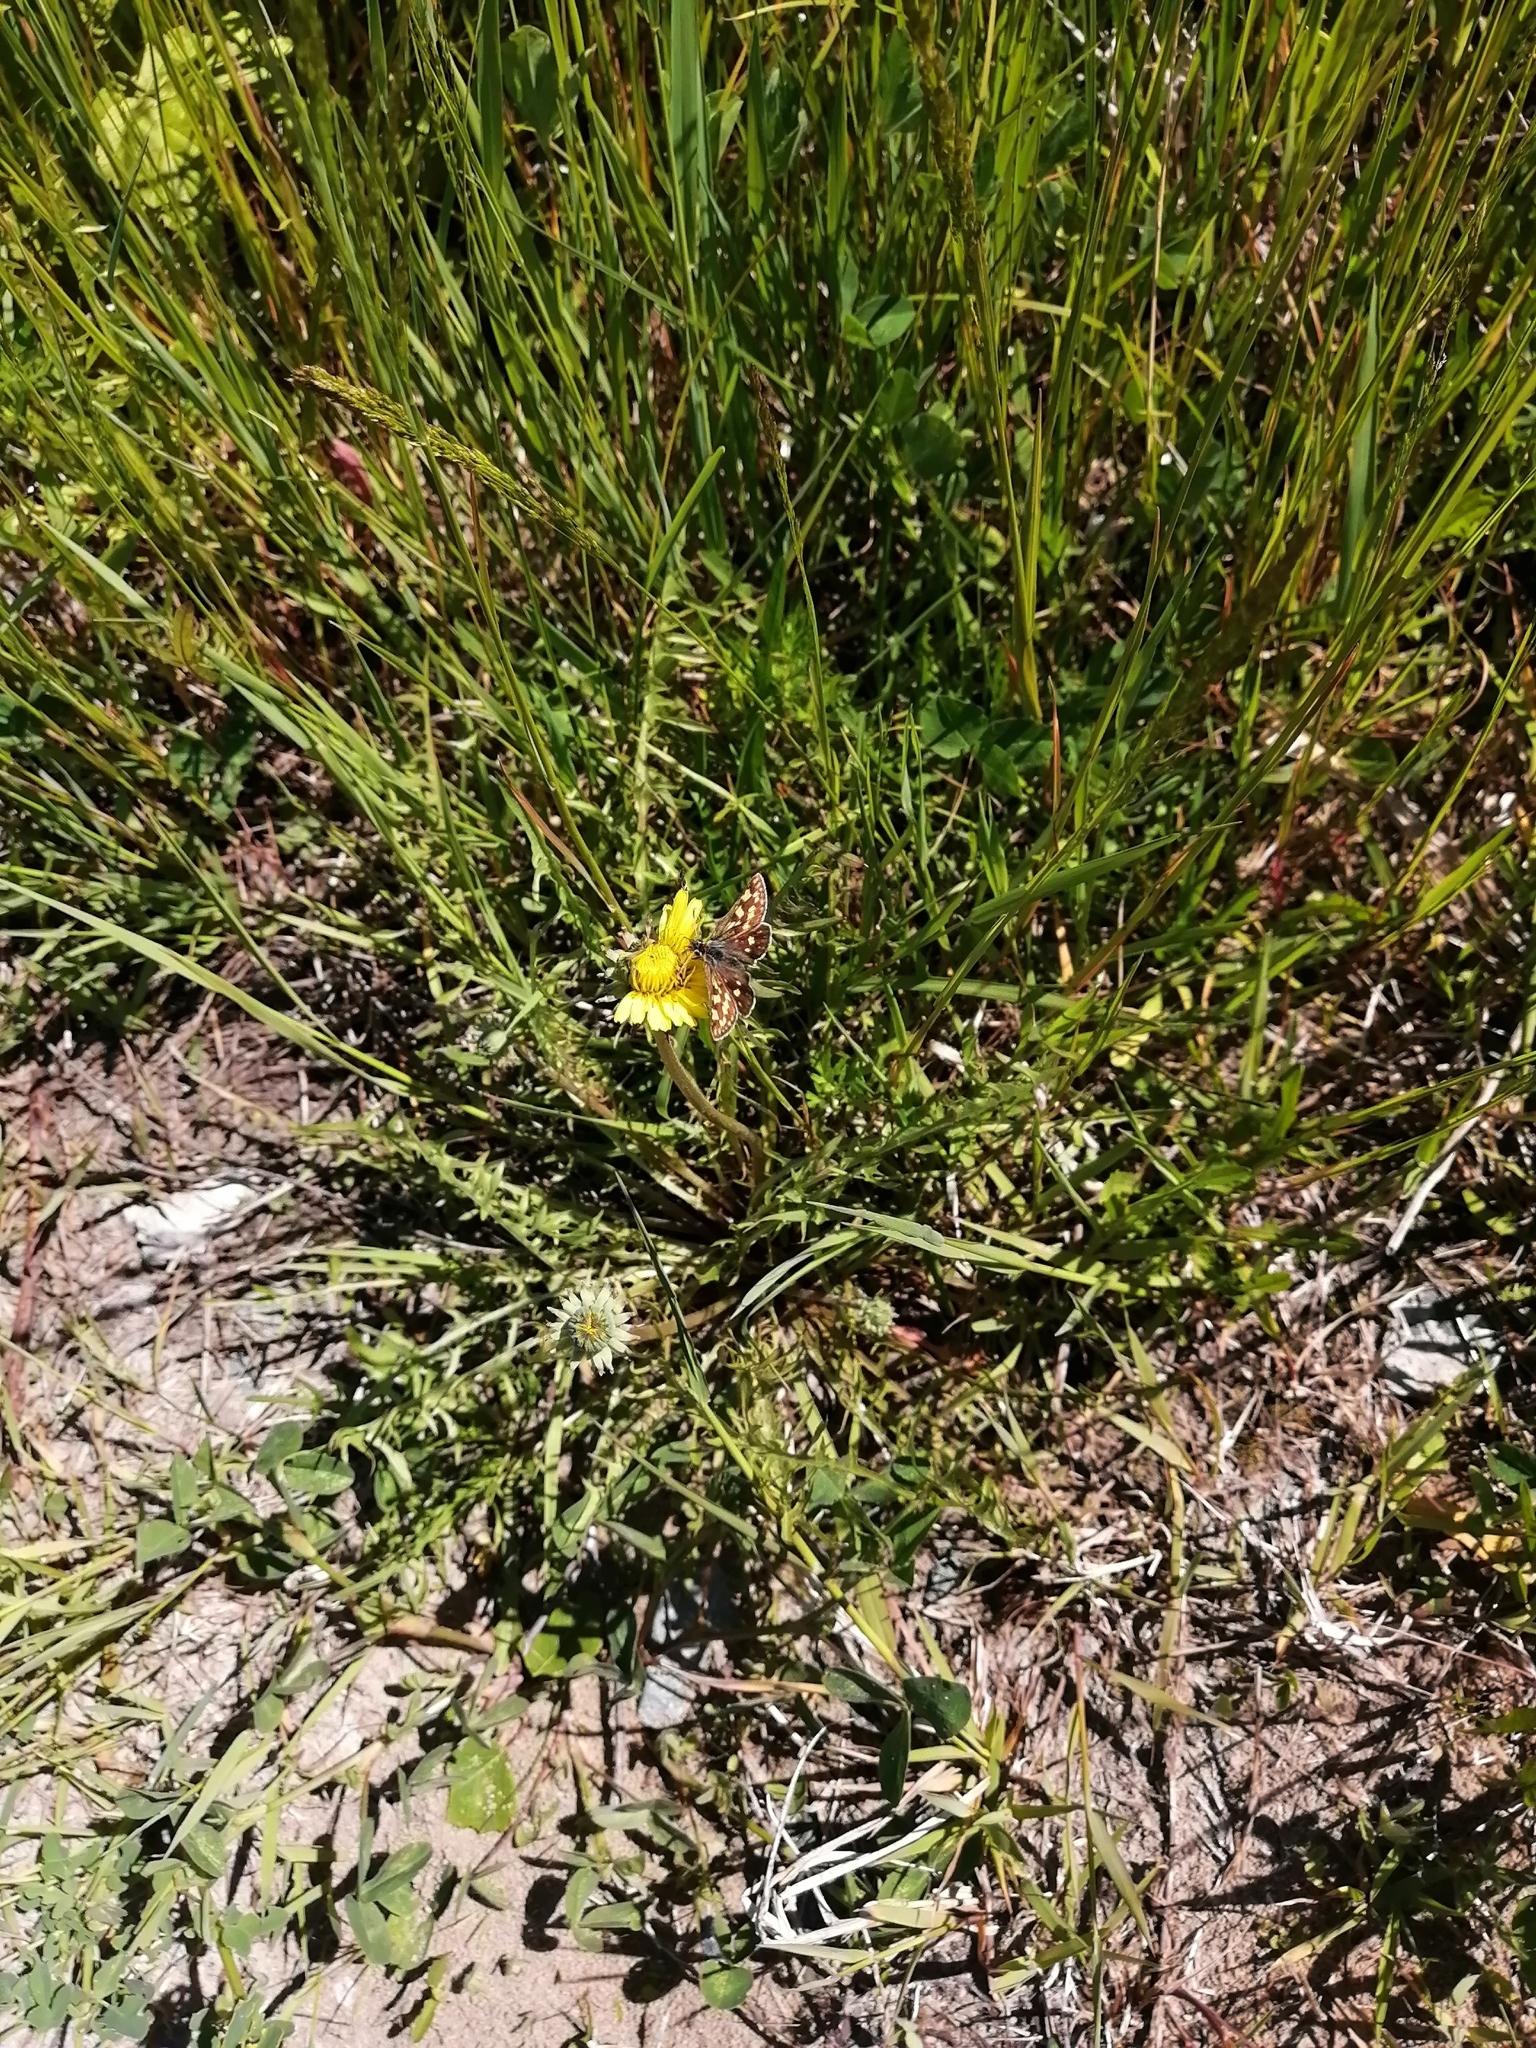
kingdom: Animalia
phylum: Arthropoda
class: Insecta
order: Lepidoptera
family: Hesperiidae
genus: Carterocephalus
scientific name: Carterocephalus palaemon
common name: Chequered skipper
